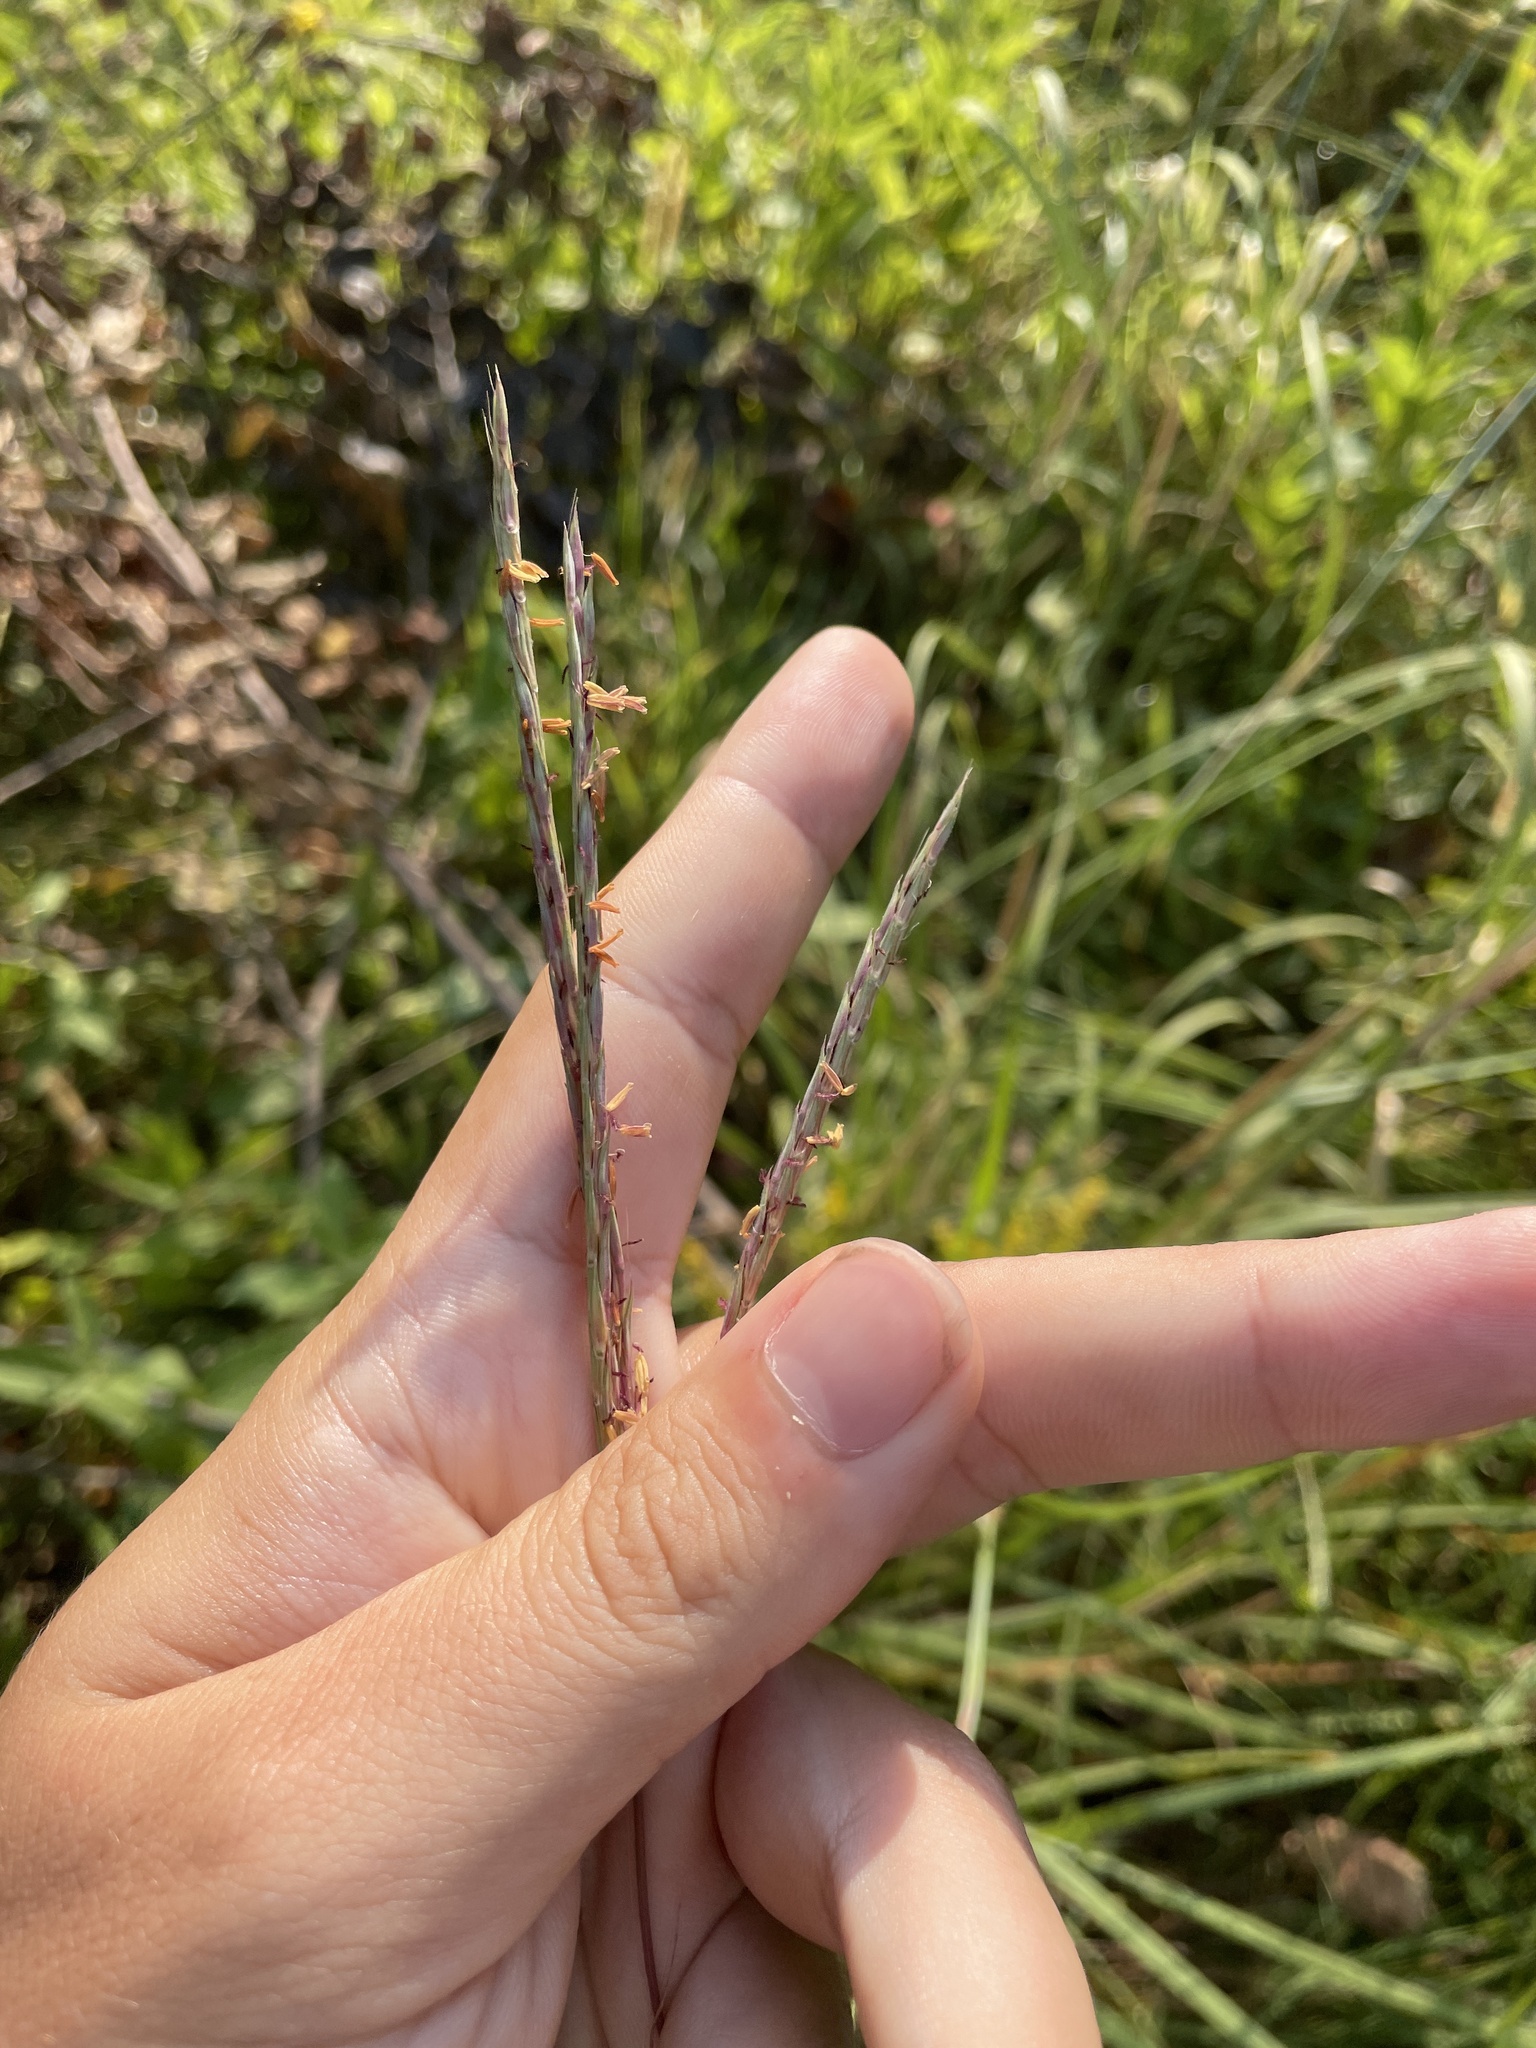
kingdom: Plantae
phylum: Tracheophyta
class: Liliopsida
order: Poales
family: Poaceae
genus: Andropogon
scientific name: Andropogon gerardi
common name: Big bluestem
